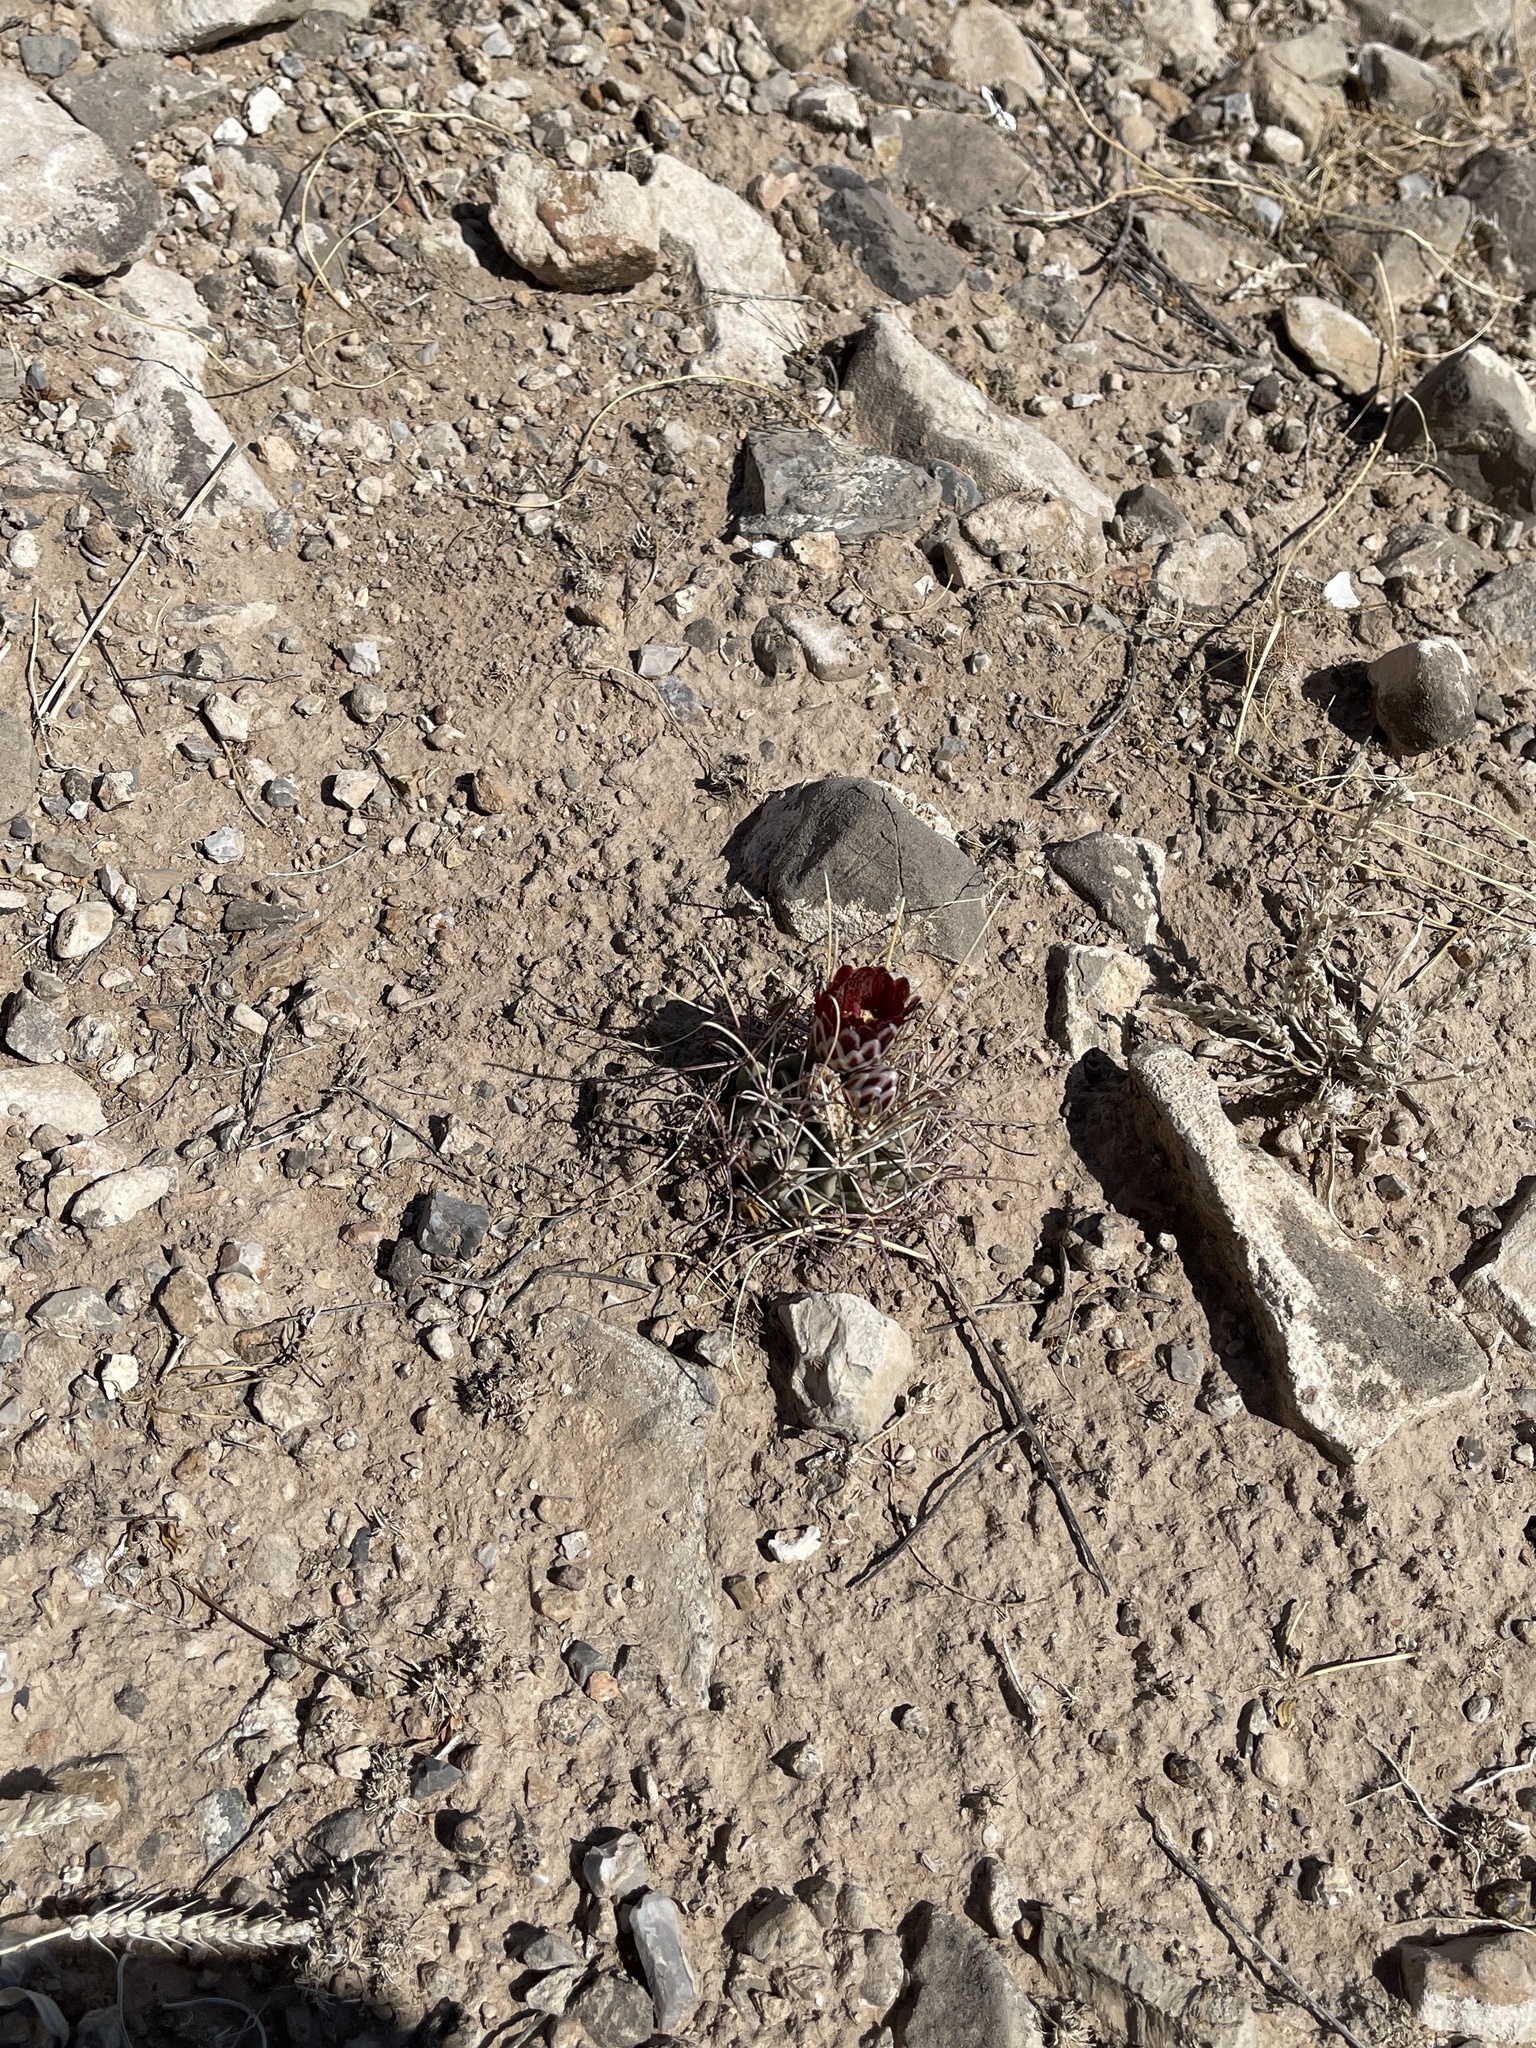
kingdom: Plantae
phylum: Tracheophyta
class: Magnoliopsida
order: Caryophyllales
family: Cactaceae
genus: Ferocactus
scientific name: Ferocactus uncinatus
